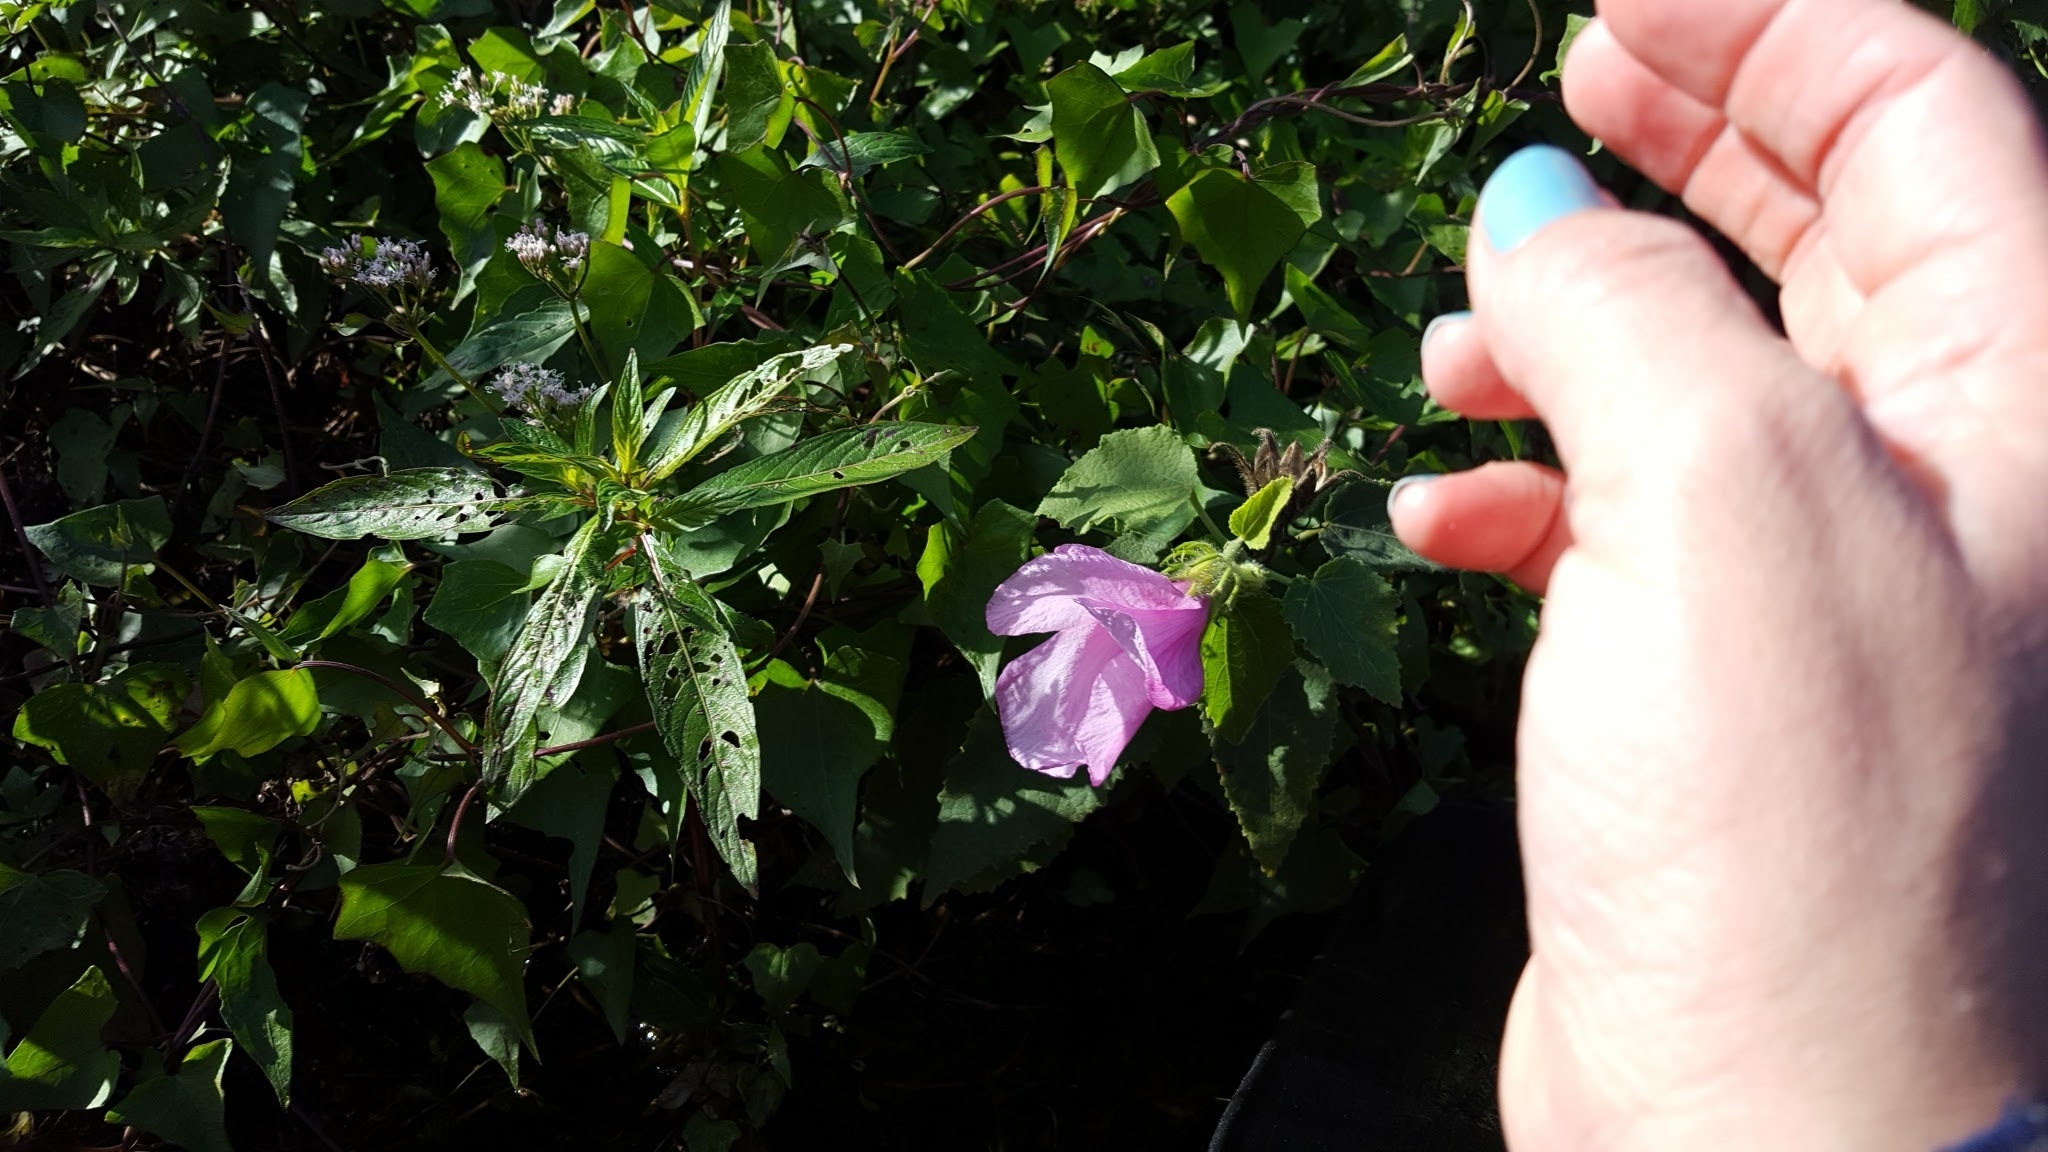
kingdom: Plantae
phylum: Tracheophyta
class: Magnoliopsida
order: Malvales
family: Malvaceae
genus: Hibiscus
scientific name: Hibiscus furcellatus
